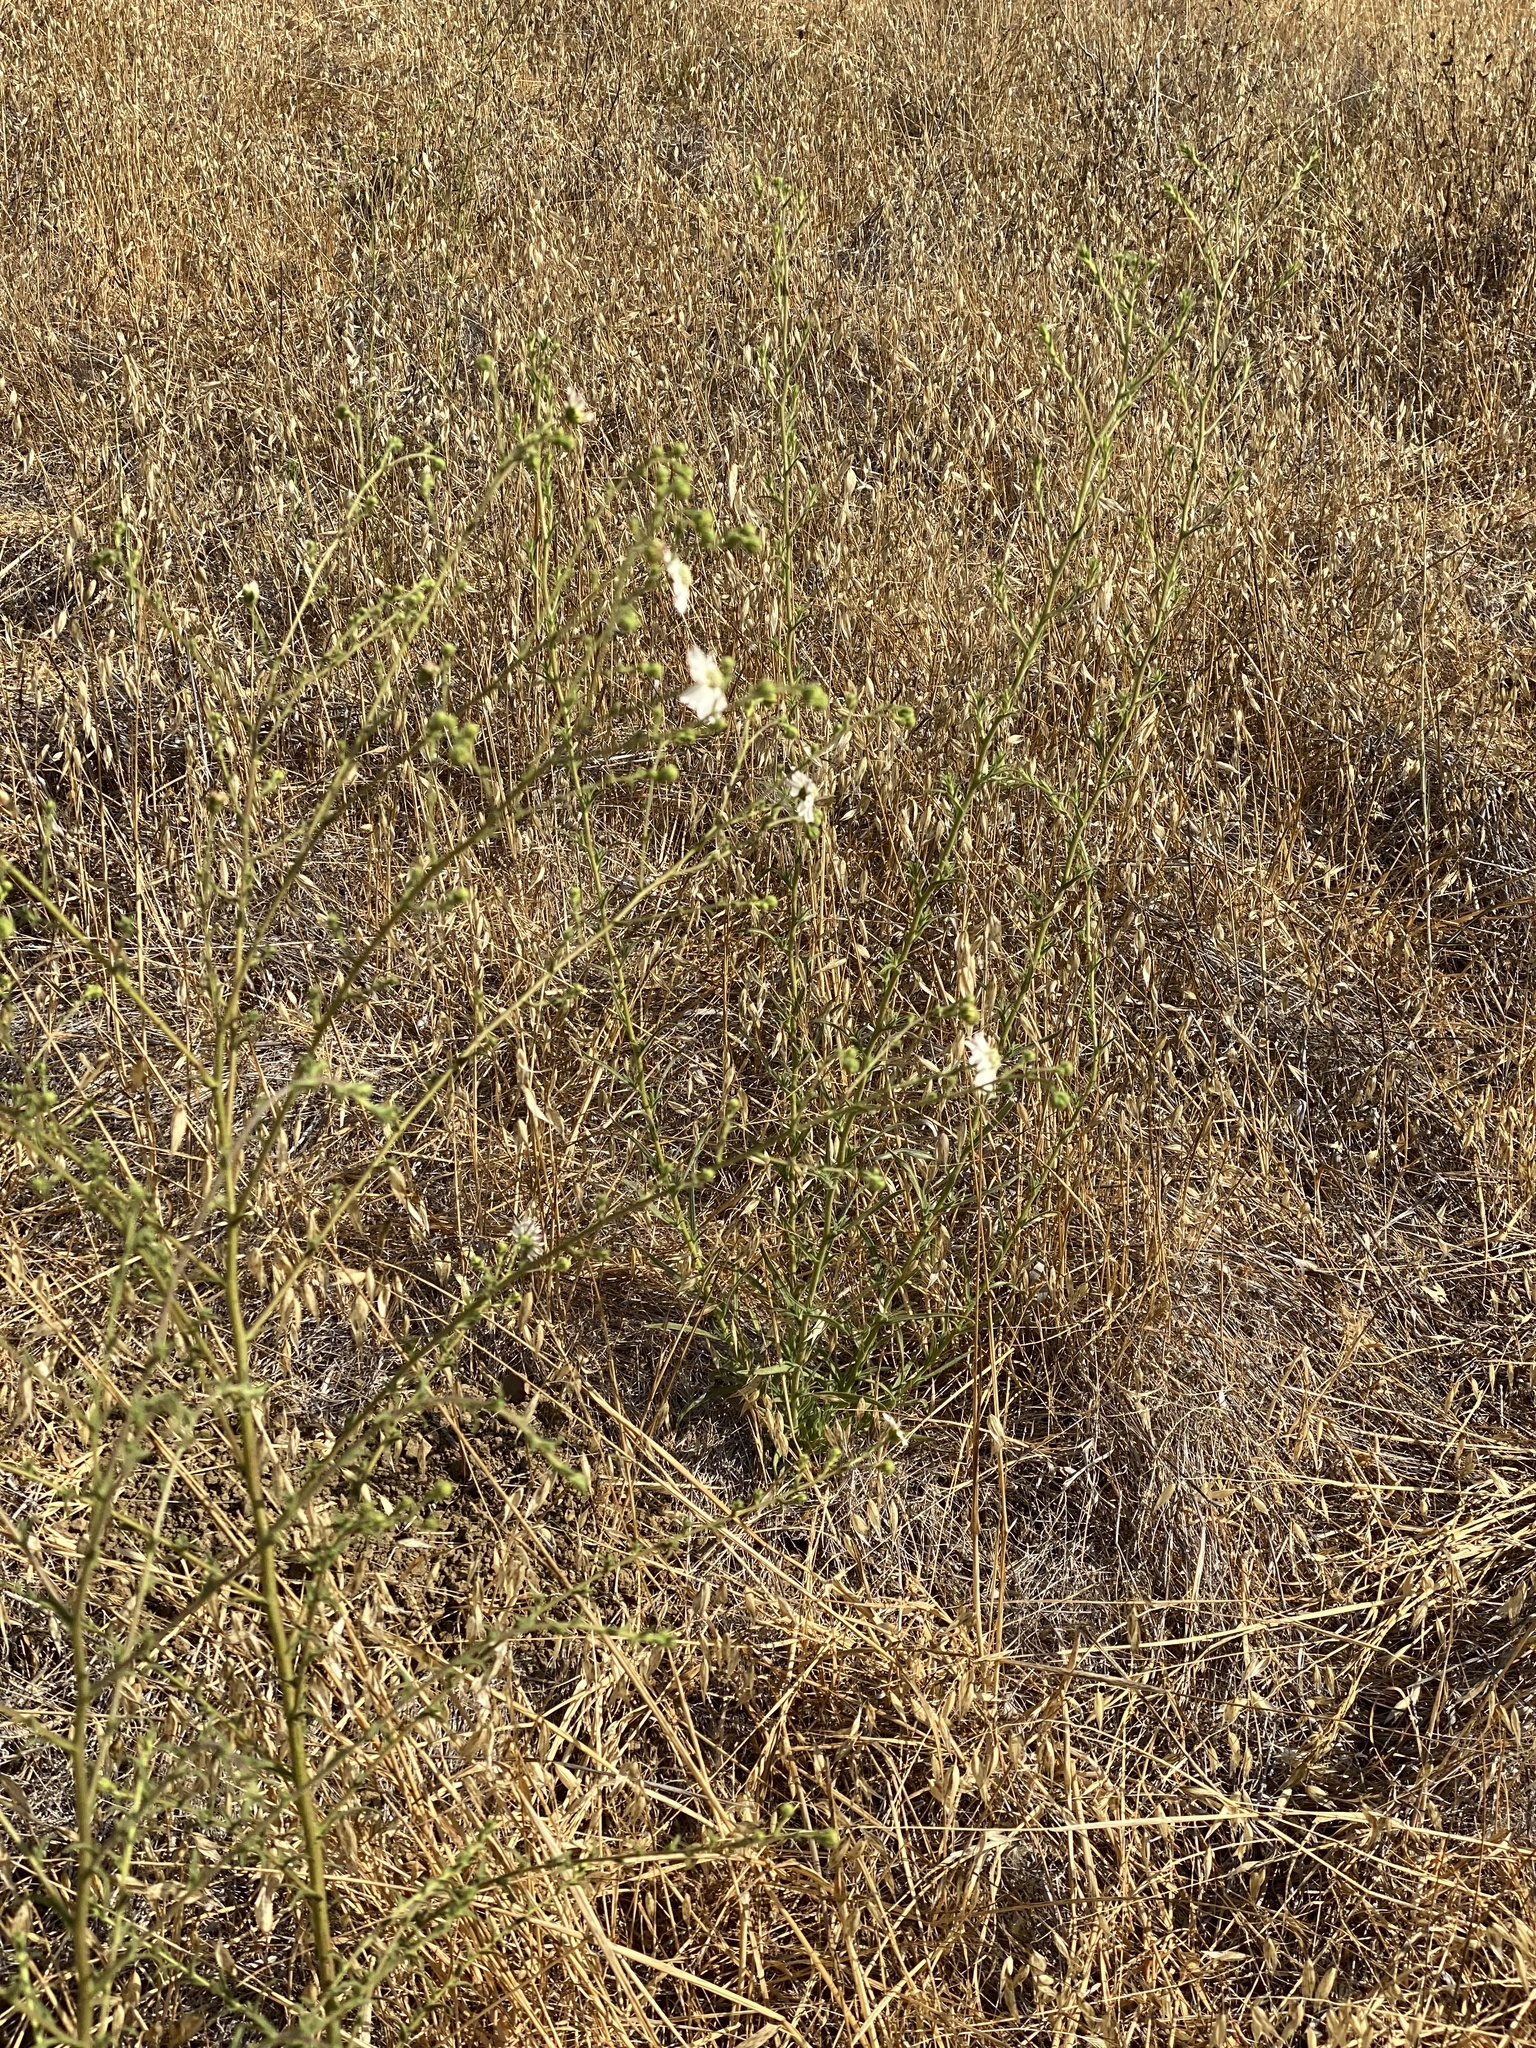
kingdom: Plantae
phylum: Tracheophyta
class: Magnoliopsida
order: Asterales
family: Asteraceae
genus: Hemizonia
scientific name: Hemizonia congesta
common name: Hayfield tarweed
